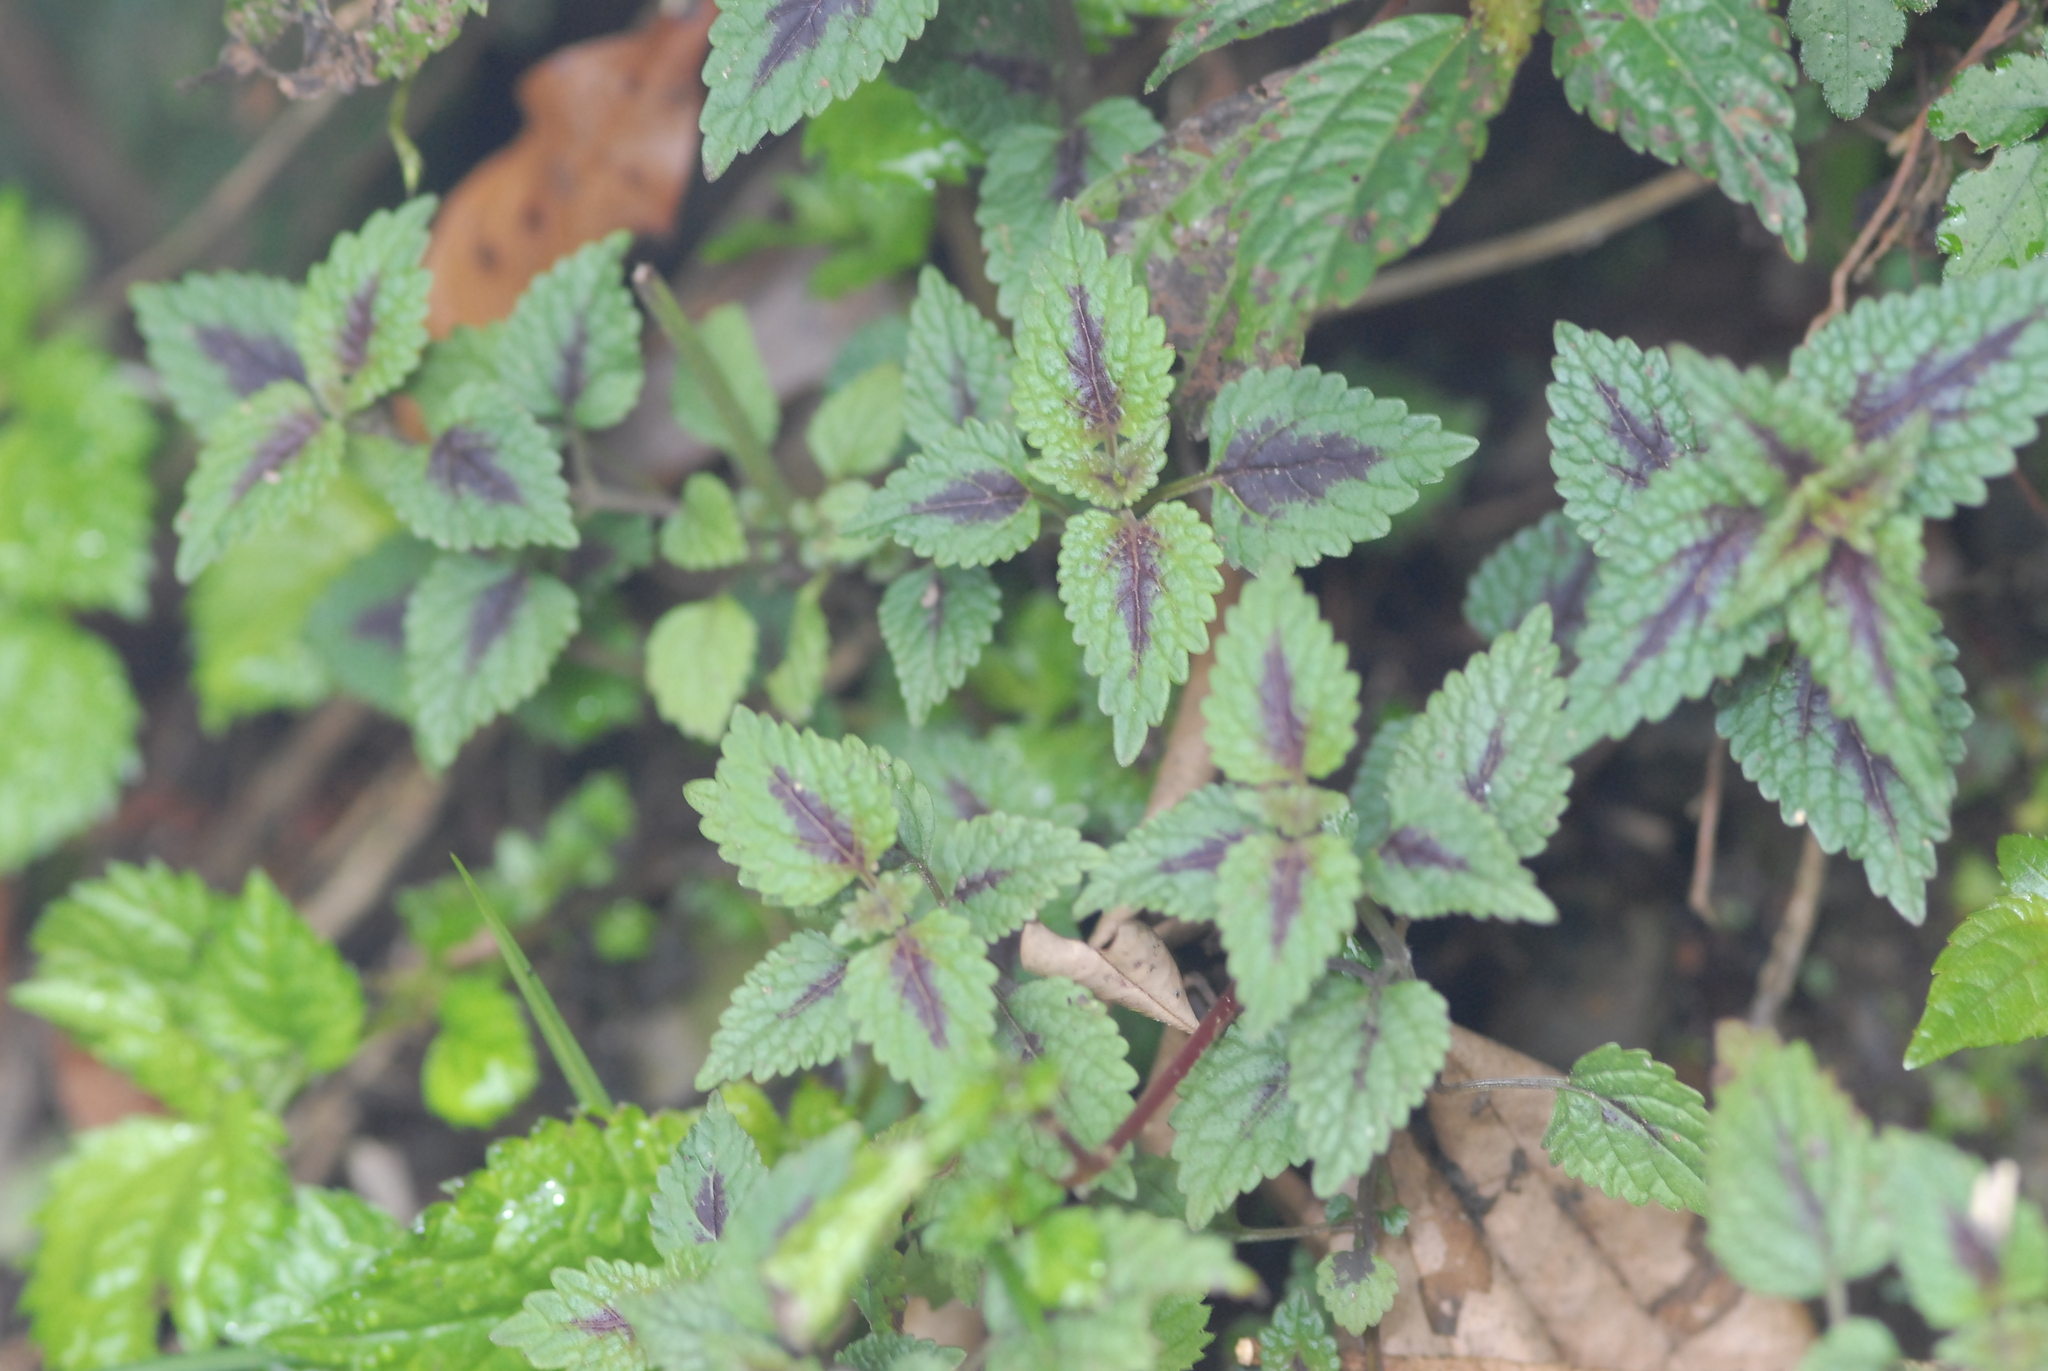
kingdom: Plantae
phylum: Tracheophyta
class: Magnoliopsida
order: Lamiales
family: Lamiaceae
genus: Melissa
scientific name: Melissa axillaris
